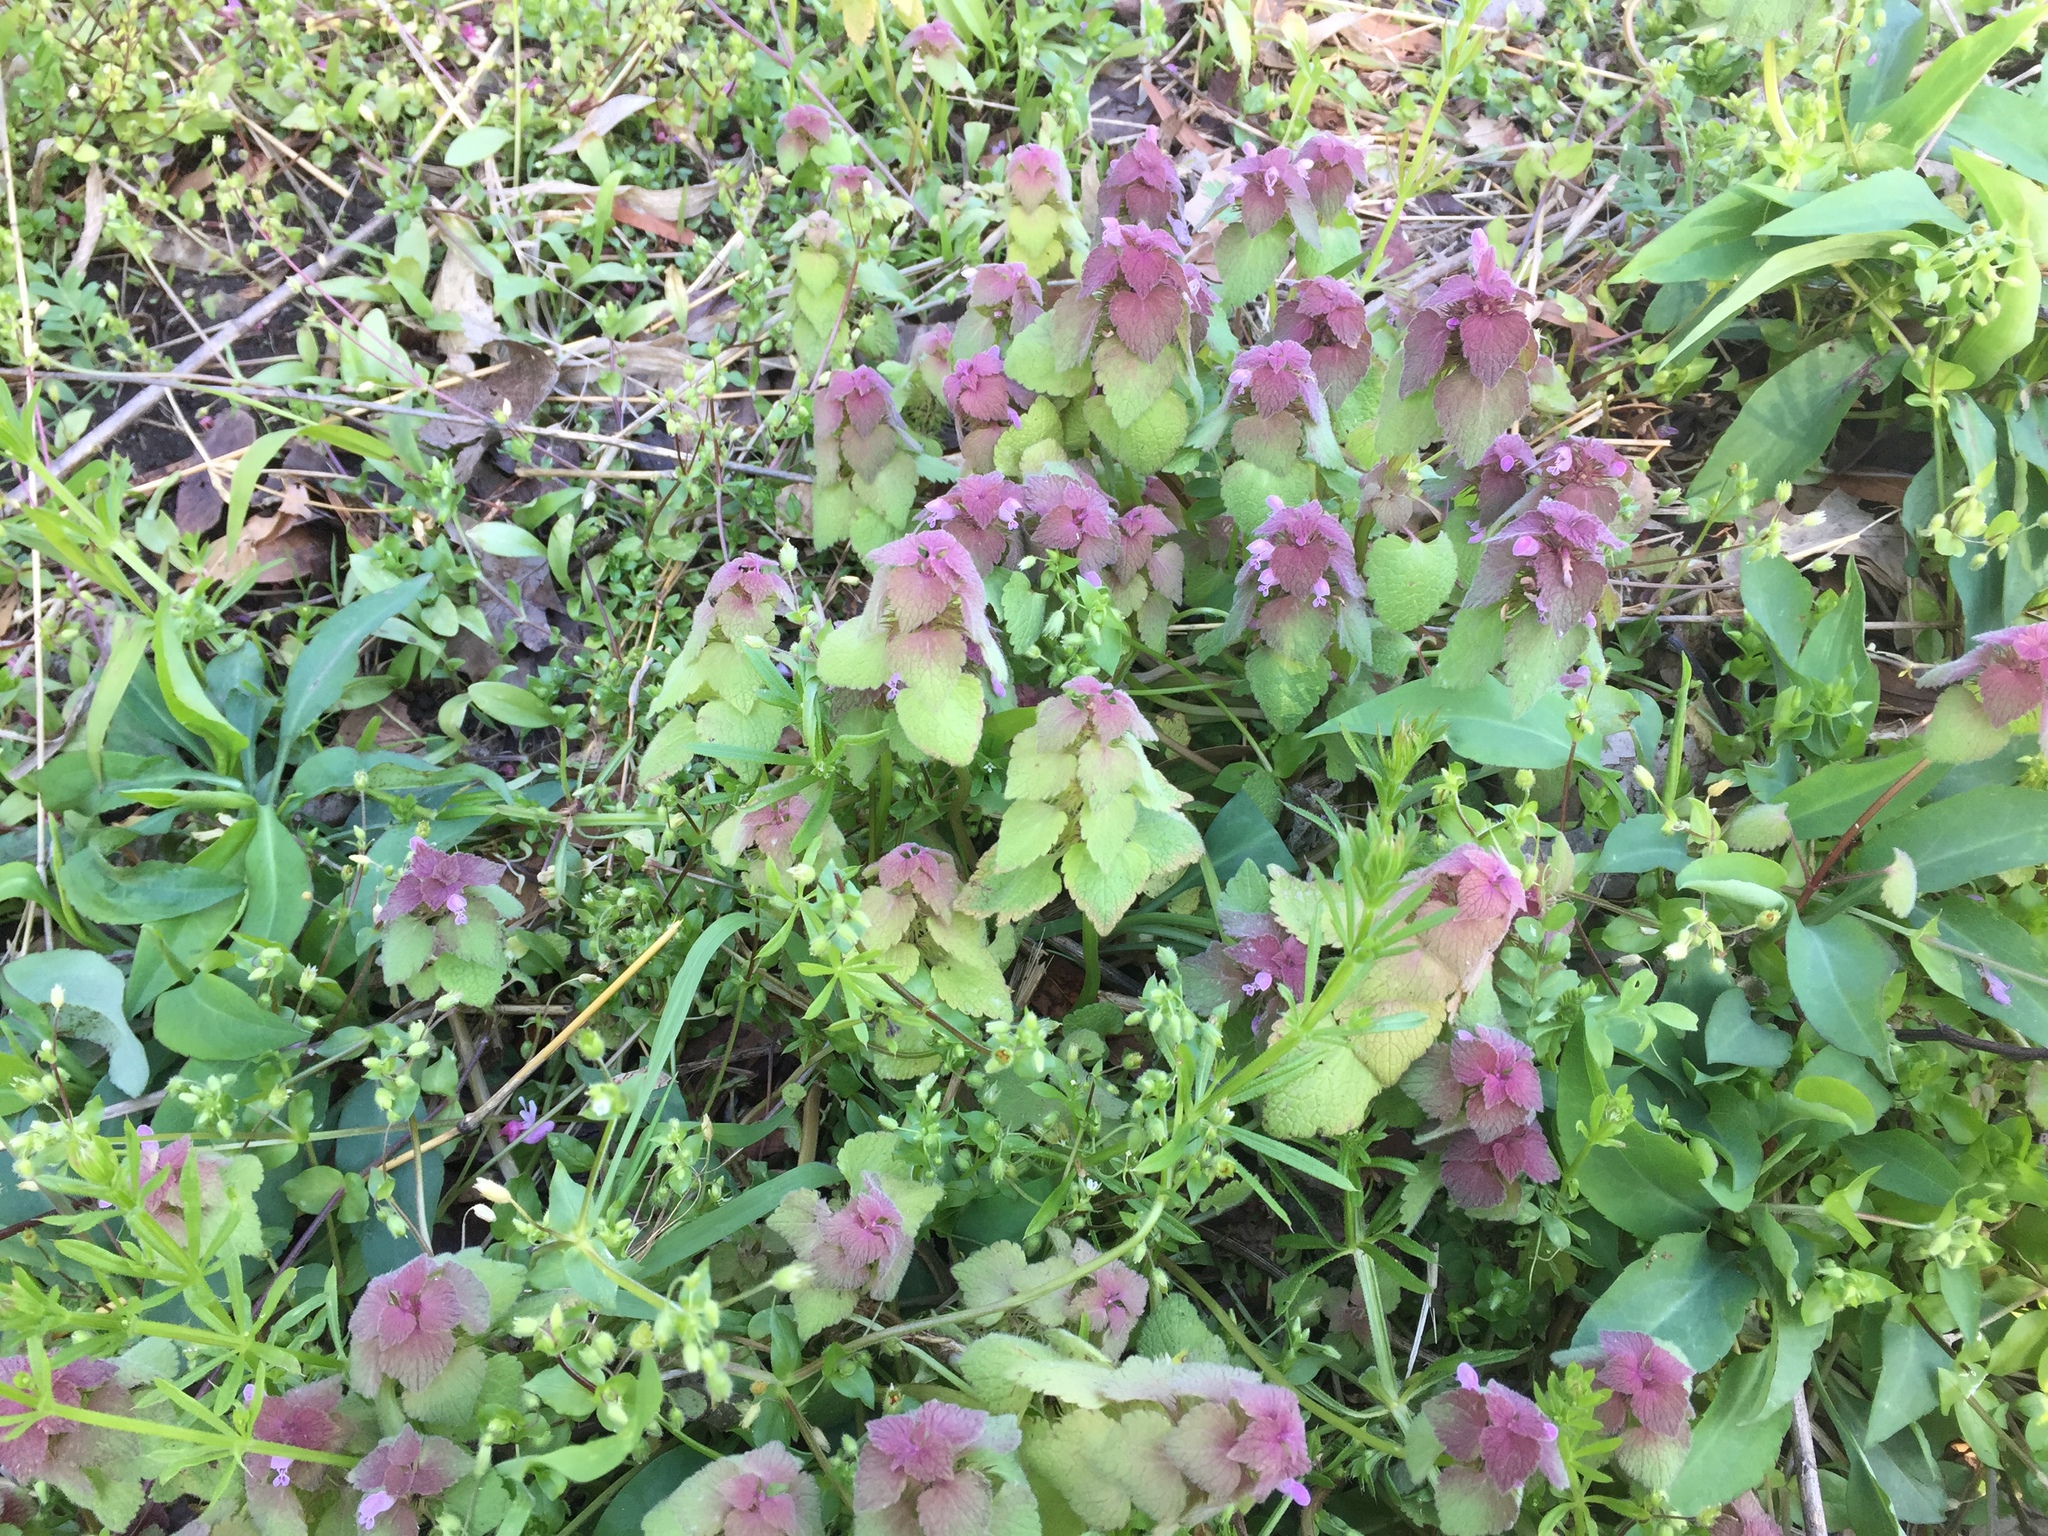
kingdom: Plantae
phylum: Tracheophyta
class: Magnoliopsida
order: Lamiales
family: Lamiaceae
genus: Lamium
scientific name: Lamium purpureum
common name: Red dead-nettle
